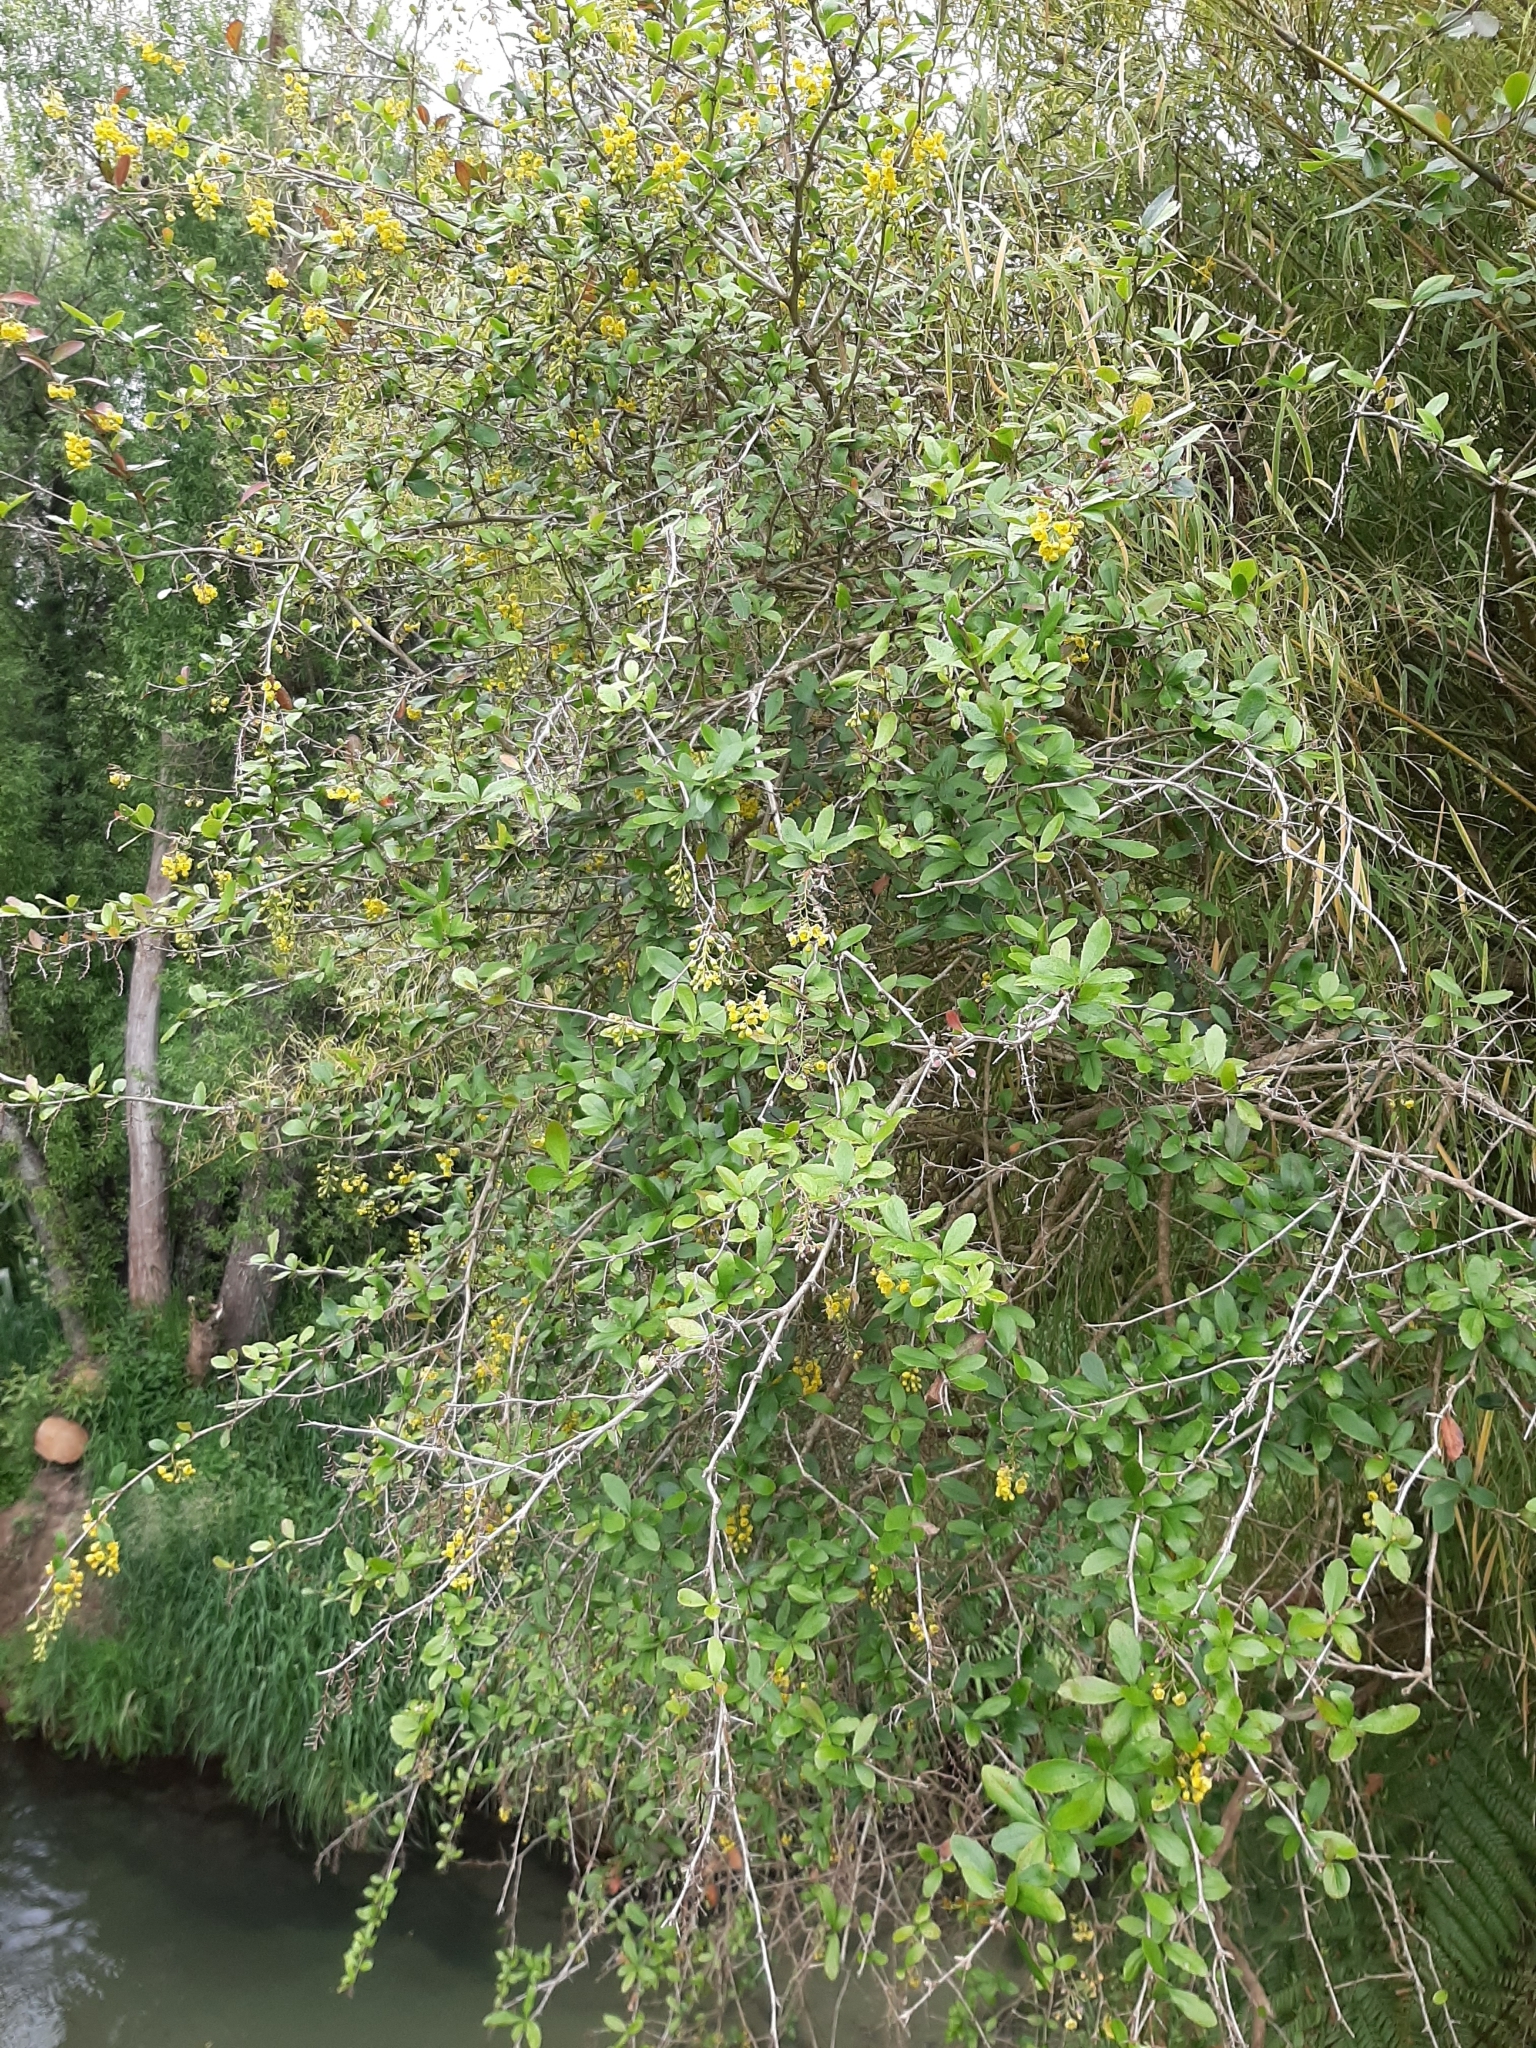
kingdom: Plantae
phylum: Tracheophyta
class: Magnoliopsida
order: Ranunculales
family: Berberidaceae
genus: Berberis
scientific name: Berberis glaucocarpa
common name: Great barberry
